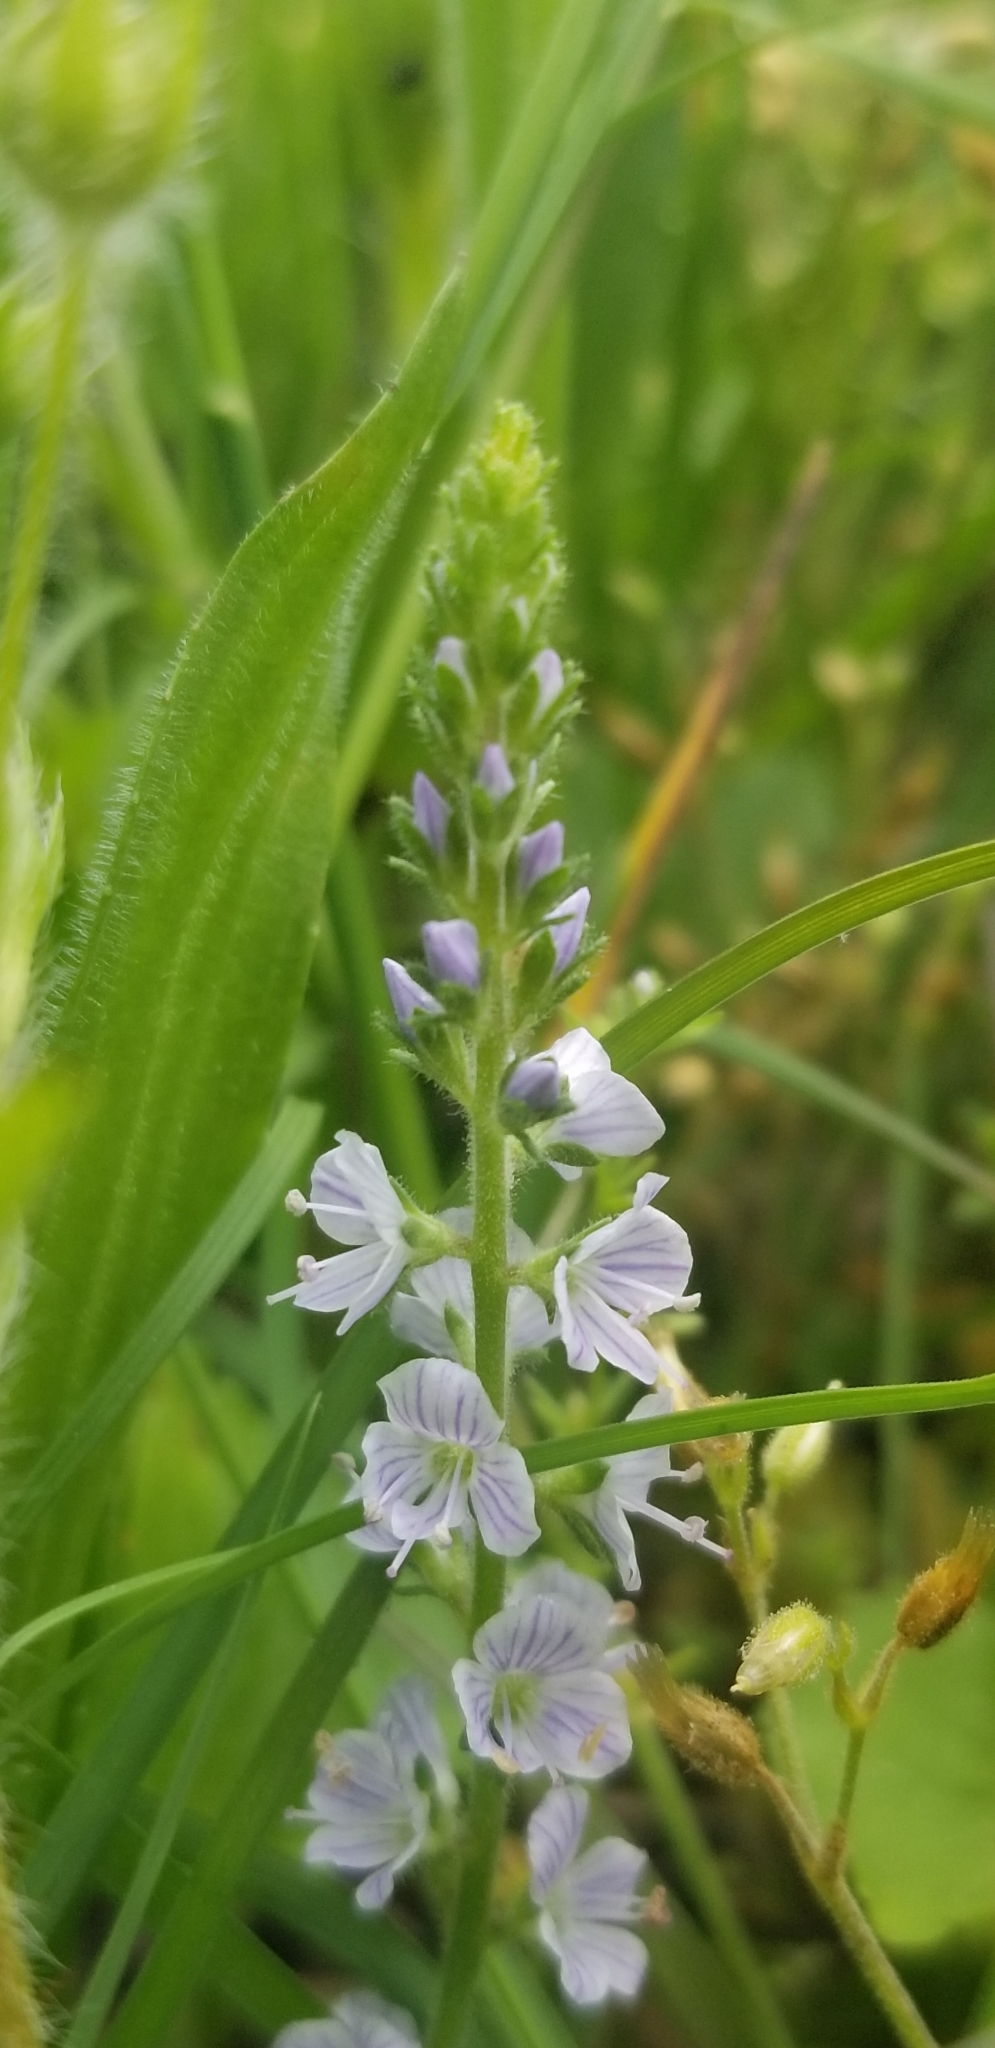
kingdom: Plantae
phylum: Tracheophyta
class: Magnoliopsida
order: Lamiales
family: Plantaginaceae
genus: Veronica
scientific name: Veronica officinalis
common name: Common speedwell
